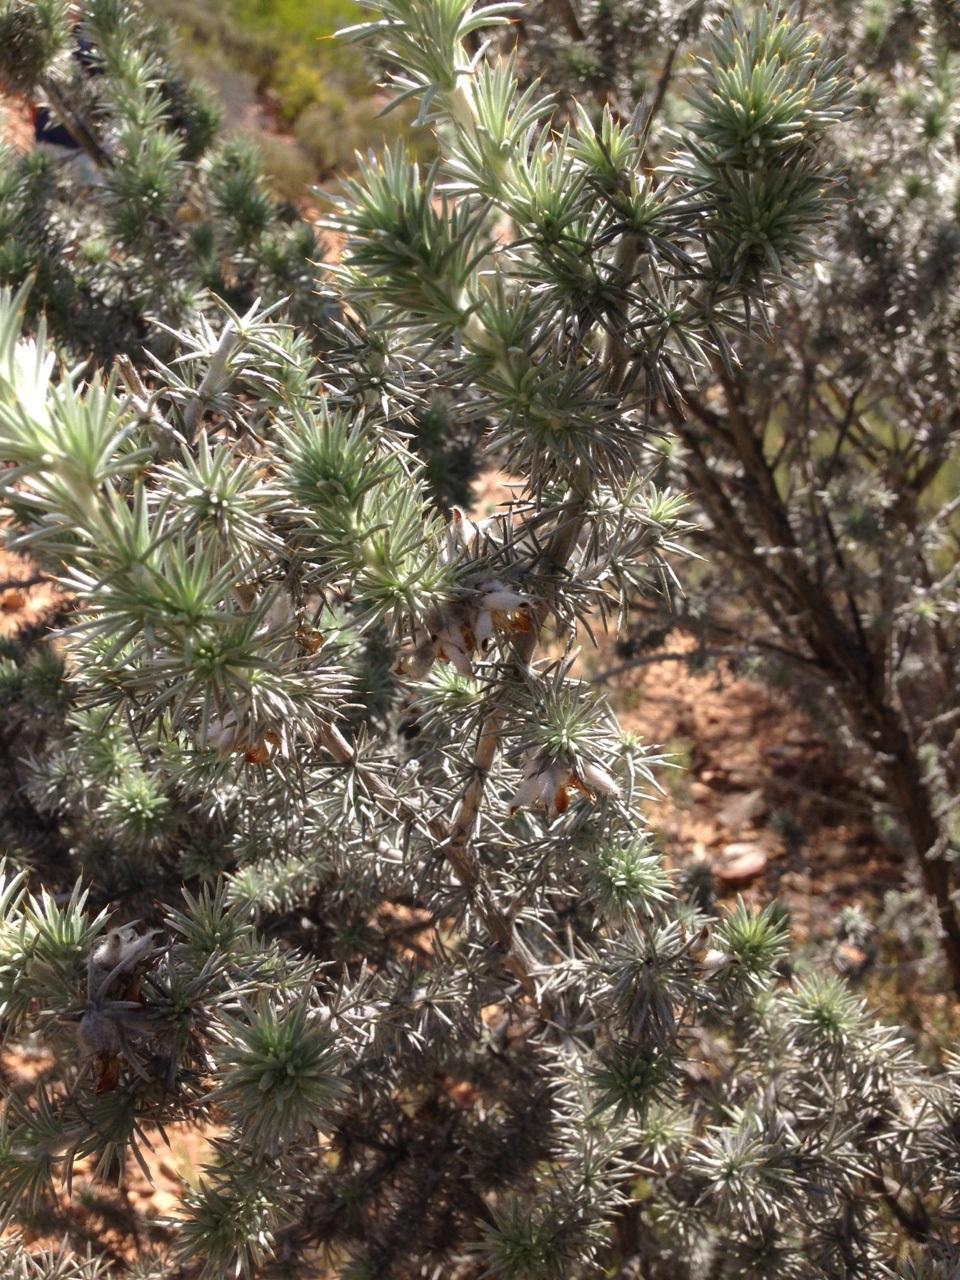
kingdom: Plantae
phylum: Tracheophyta
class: Magnoliopsida
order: Fabales
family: Fabaceae
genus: Aspalathus
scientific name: Aspalathus hystrix
